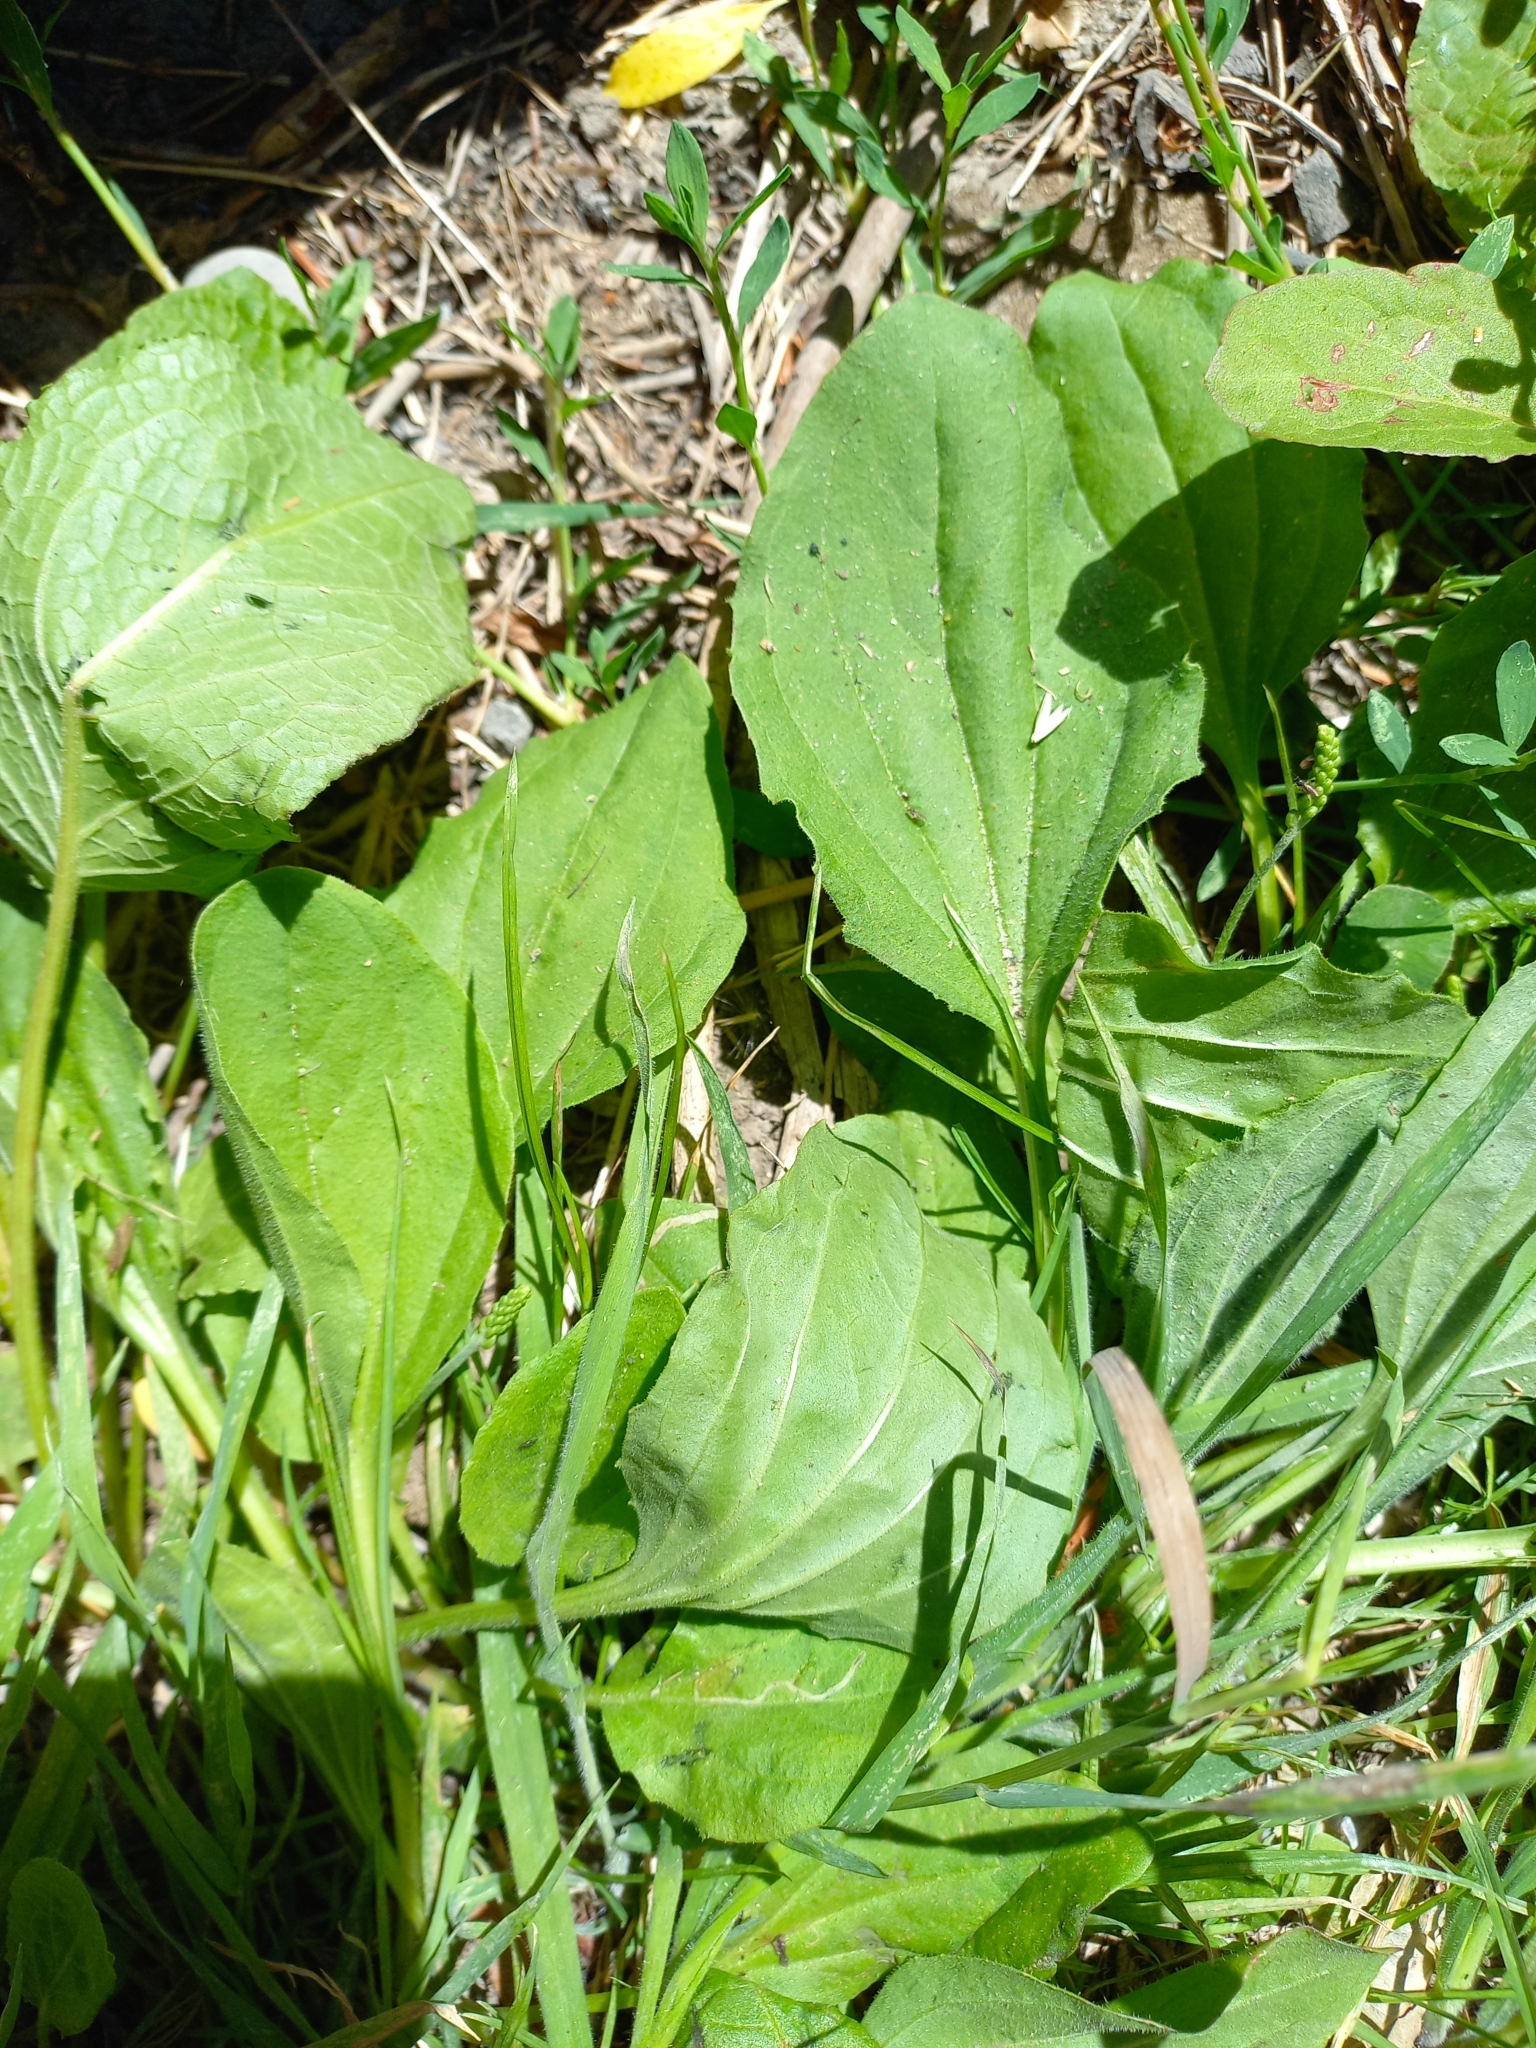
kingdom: Plantae
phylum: Tracheophyta
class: Magnoliopsida
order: Lamiales
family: Plantaginaceae
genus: Plantago
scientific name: Plantago major
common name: Common plantain
